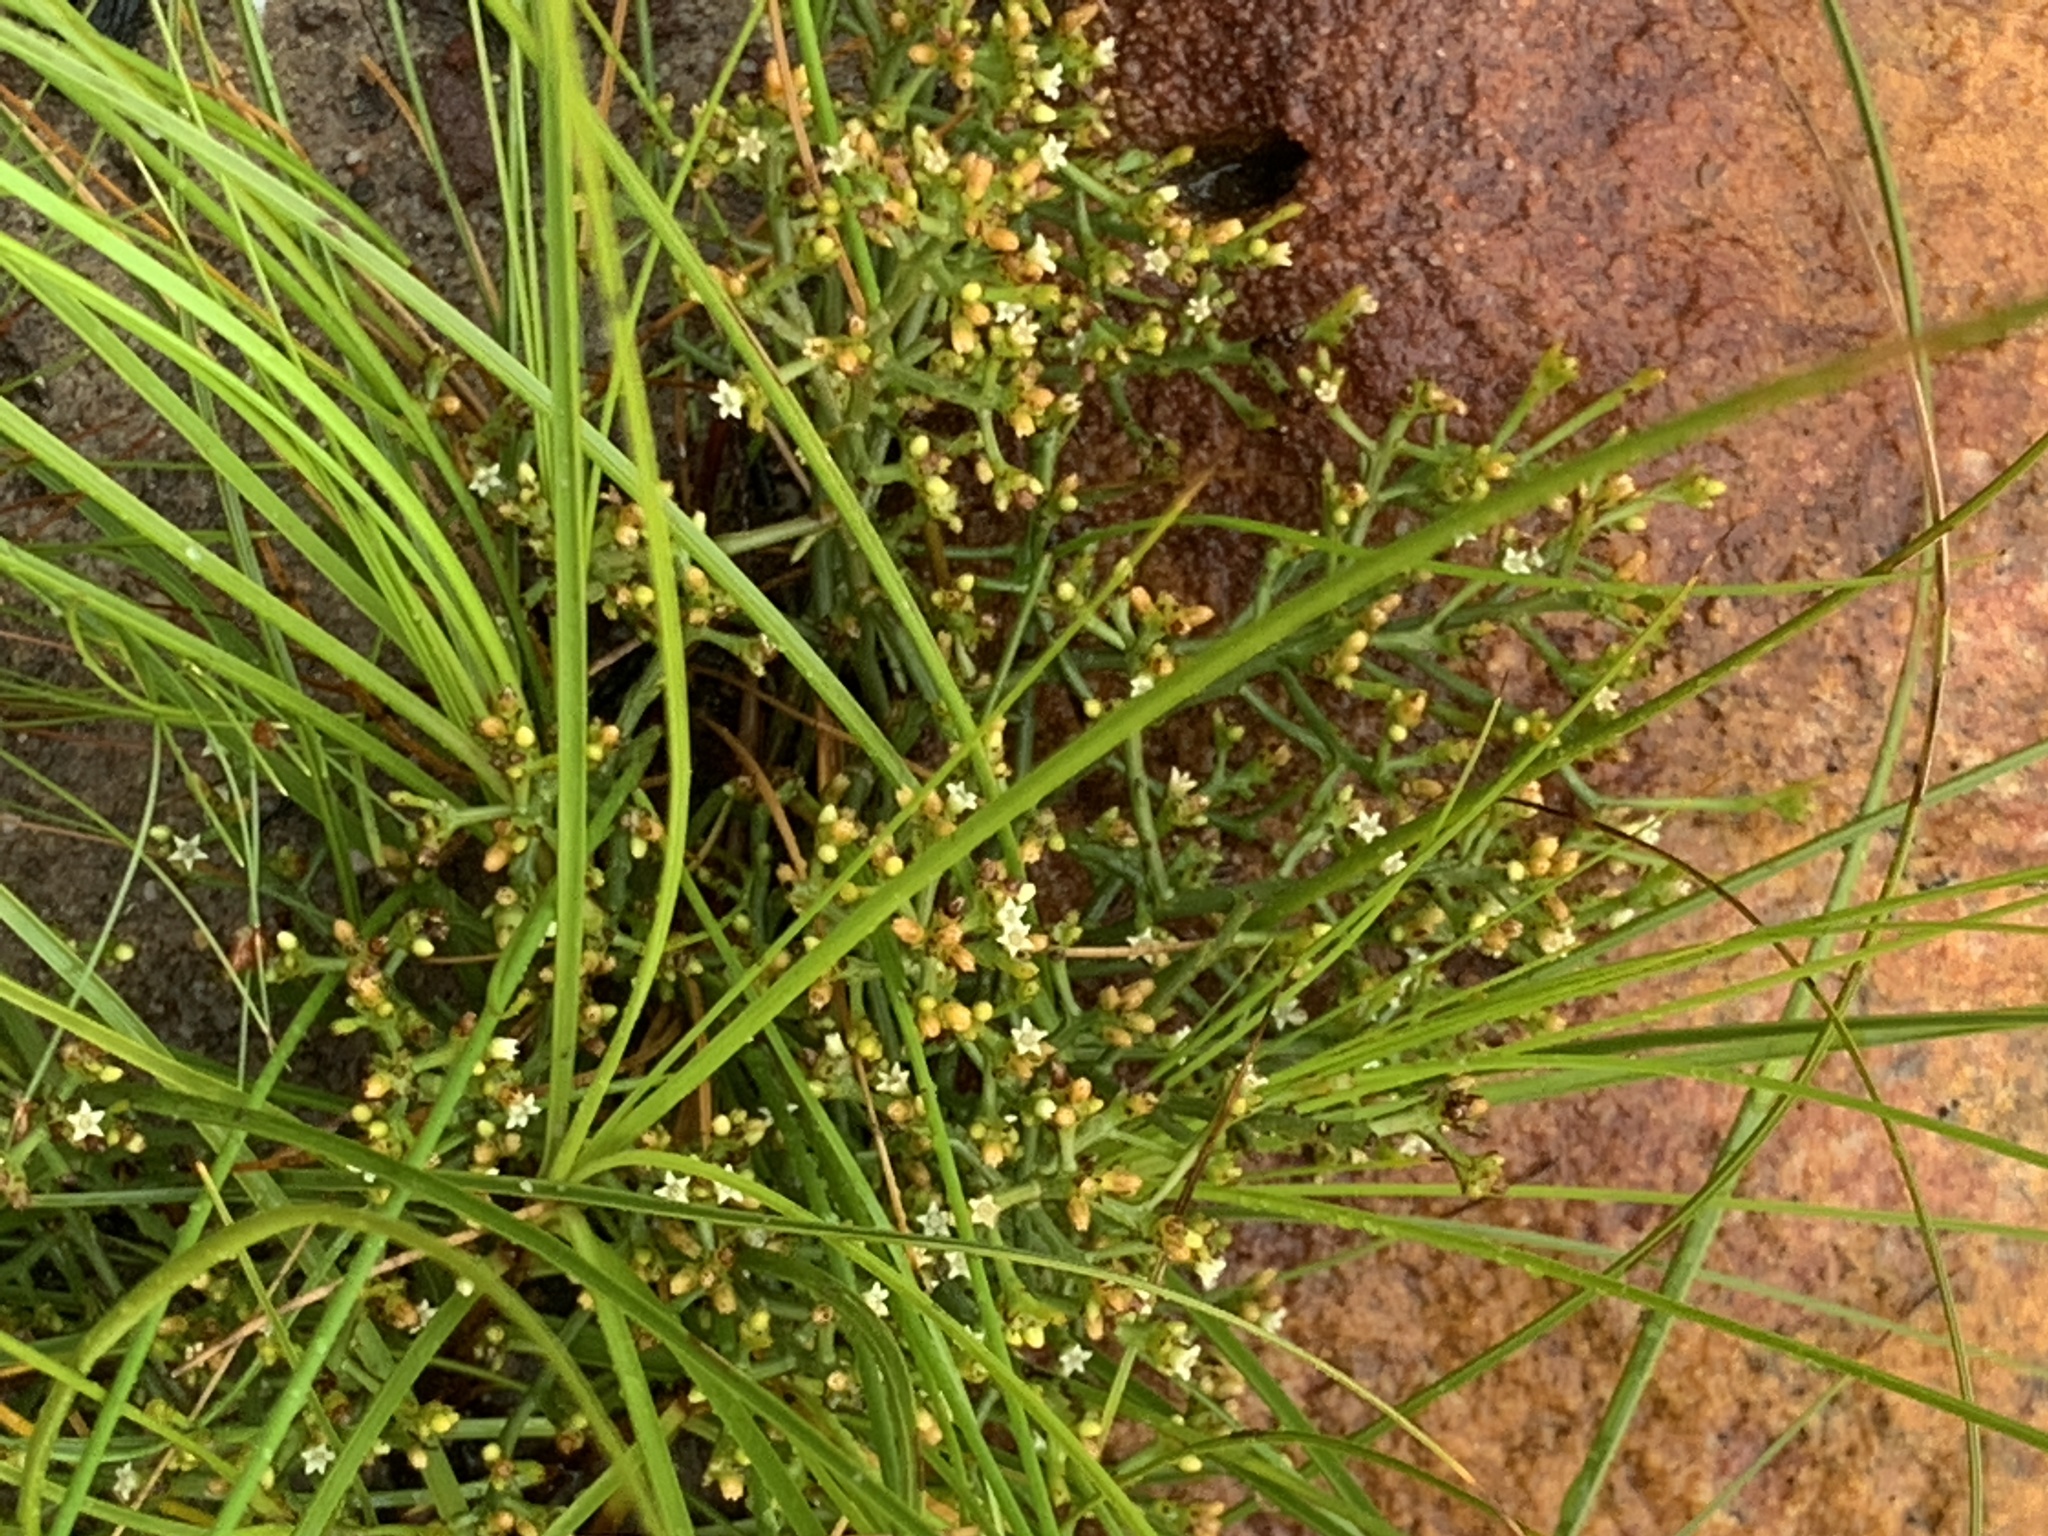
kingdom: Plantae
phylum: Tracheophyta
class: Magnoliopsida
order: Santalales
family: Thesiaceae
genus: Thesium
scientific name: Thesium nudicaule
